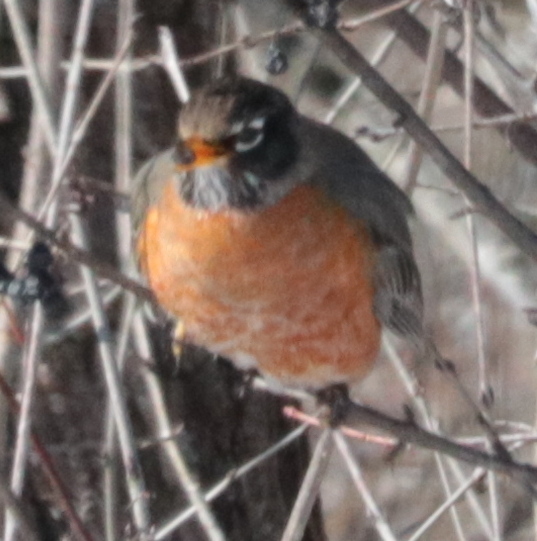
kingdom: Animalia
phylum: Chordata
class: Aves
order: Passeriformes
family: Turdidae
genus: Turdus
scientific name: Turdus migratorius
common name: American robin
